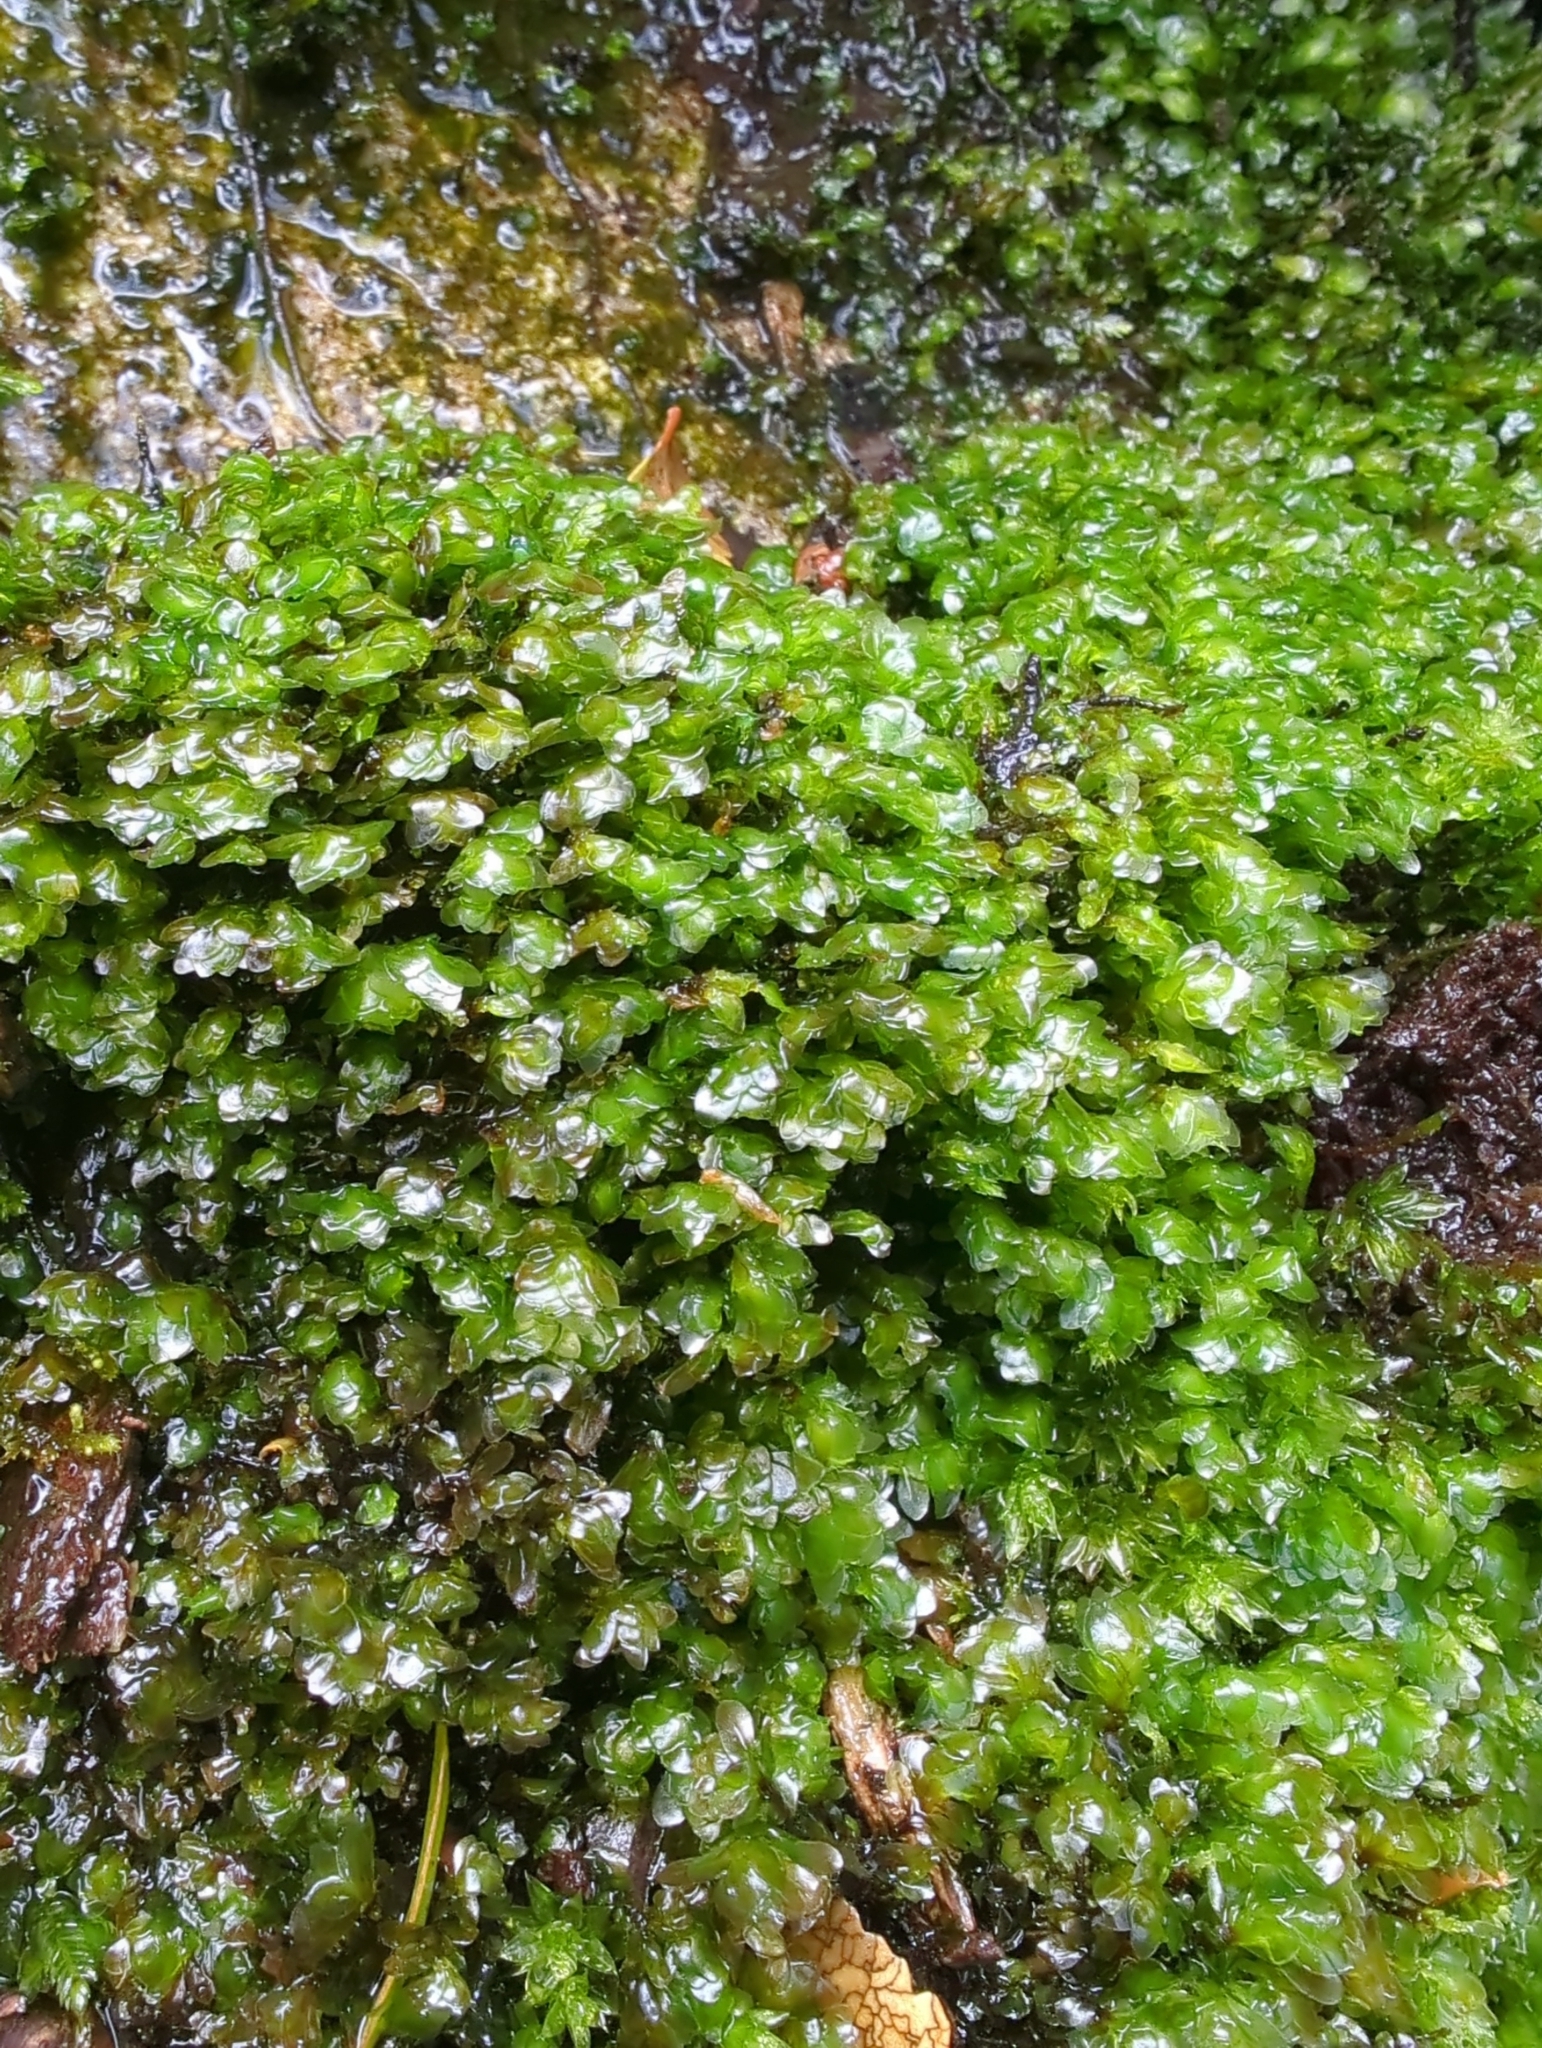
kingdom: Plantae
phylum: Bryophyta
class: Bryopsida
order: Hookeriales
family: Daltoniaceae
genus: Achrophyllum
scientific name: Achrophyllum dentatum
